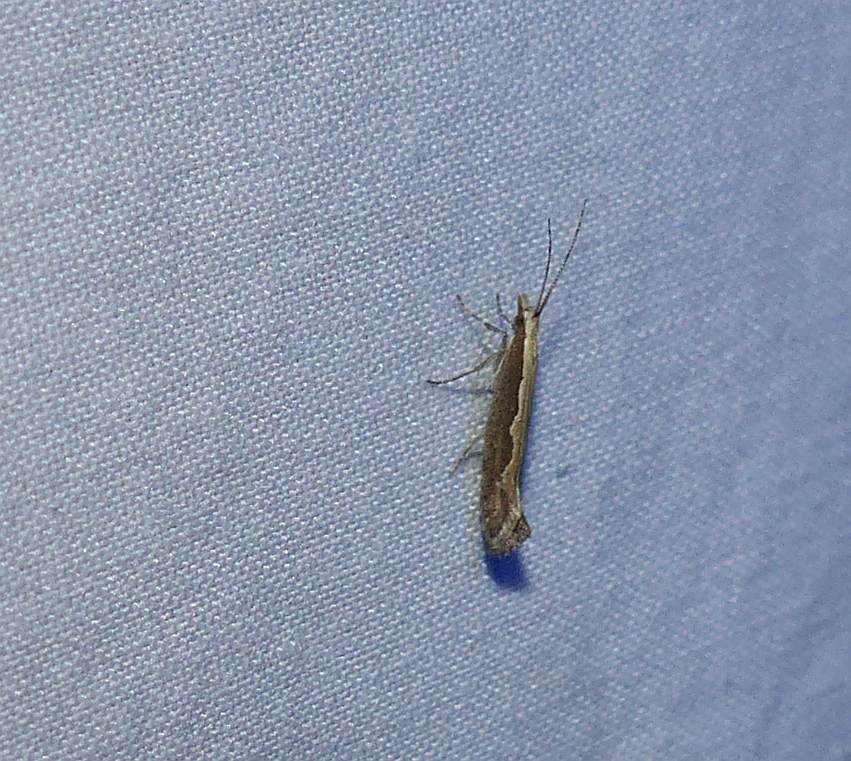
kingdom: Animalia
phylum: Arthropoda
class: Insecta
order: Lepidoptera
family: Plutellidae
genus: Plutella
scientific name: Plutella xylostella
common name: Diamond-back moth
